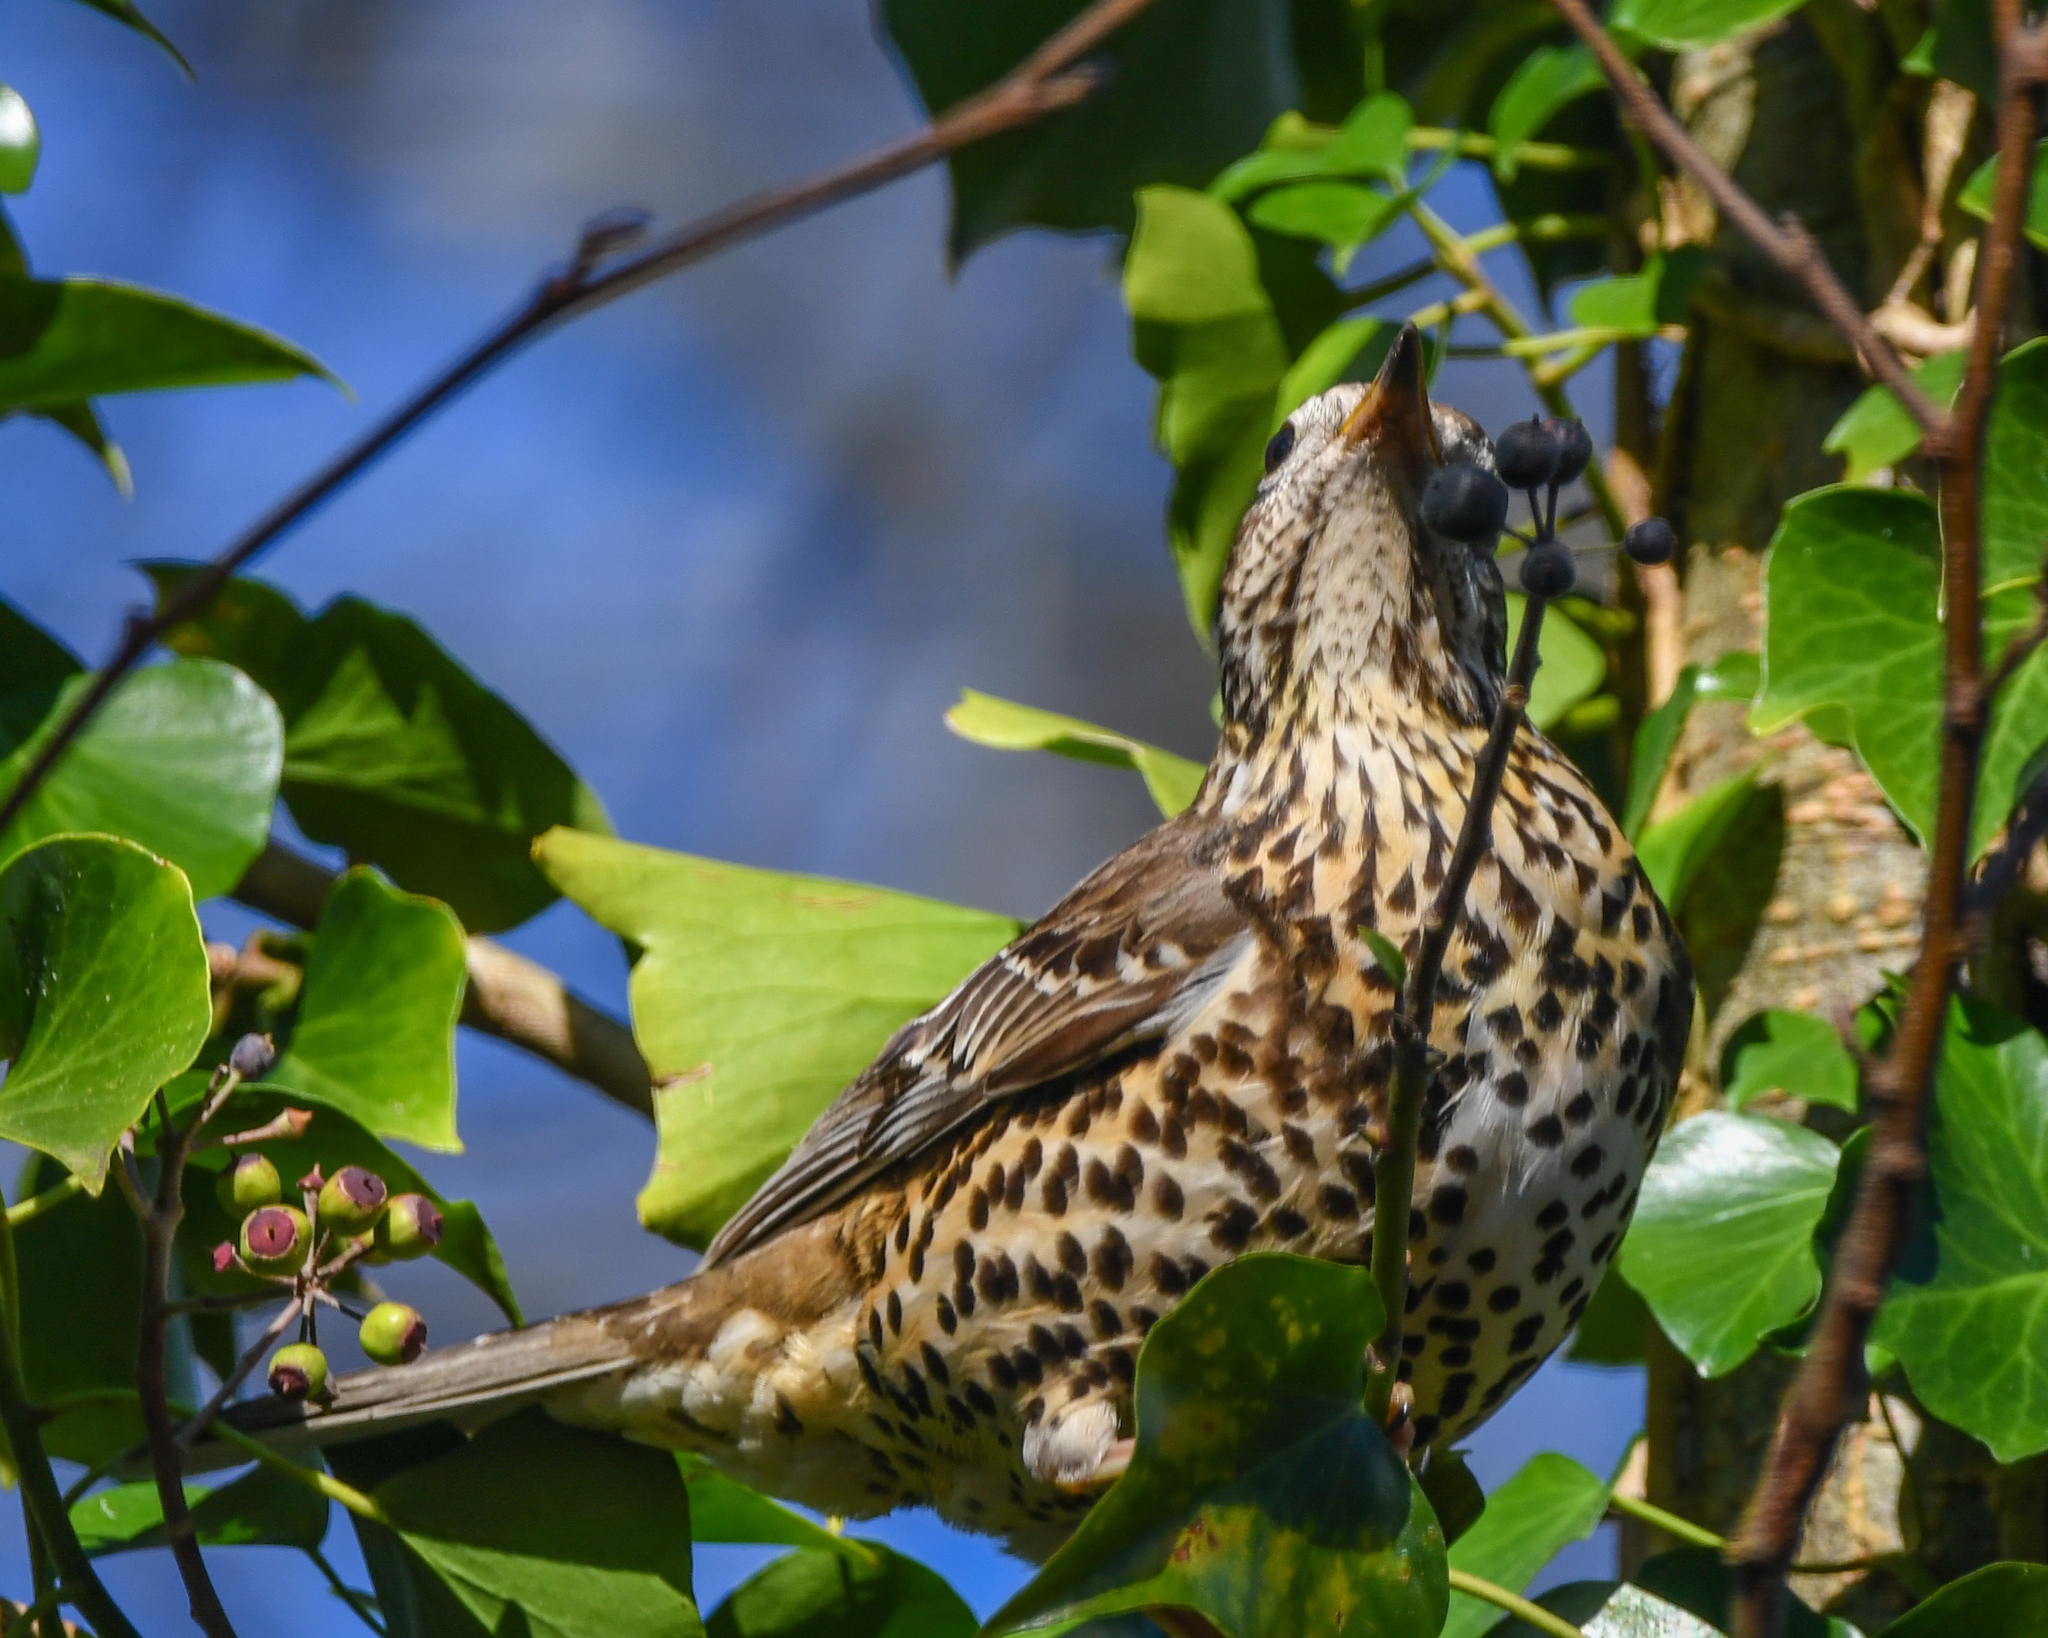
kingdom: Animalia
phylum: Chordata
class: Aves
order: Passeriformes
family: Turdidae
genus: Turdus
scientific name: Turdus viscivorus
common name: Mistle thrush
